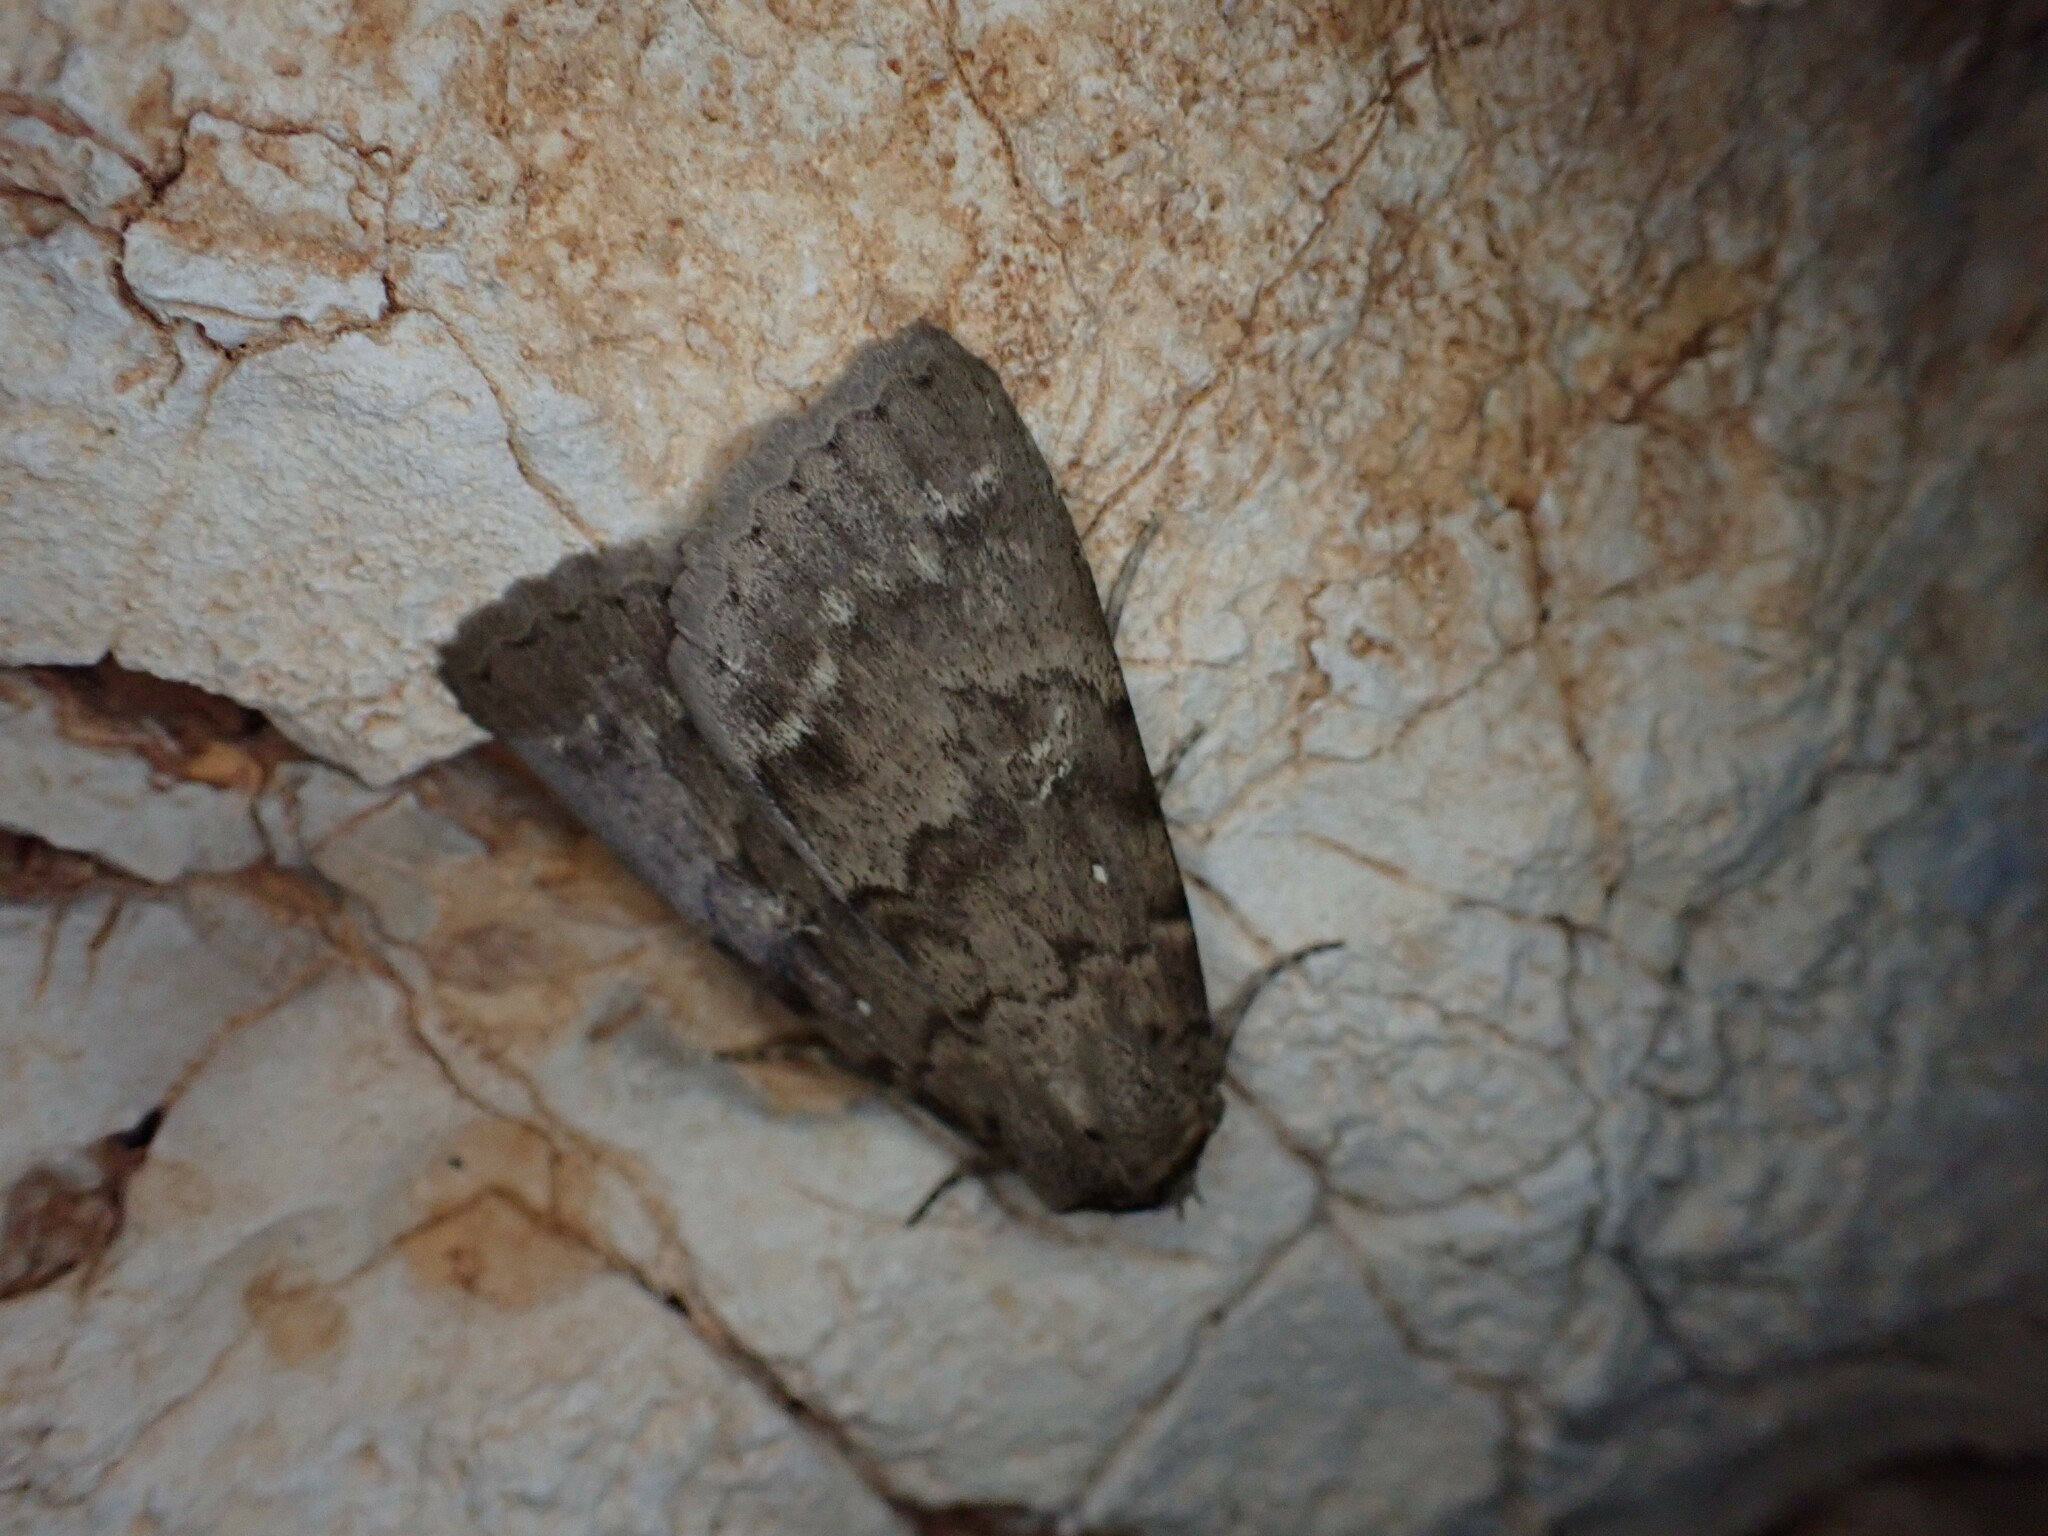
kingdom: Animalia
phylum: Arthropoda
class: Insecta
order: Lepidoptera
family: Erebidae
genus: Apopestes
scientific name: Apopestes spectrum
